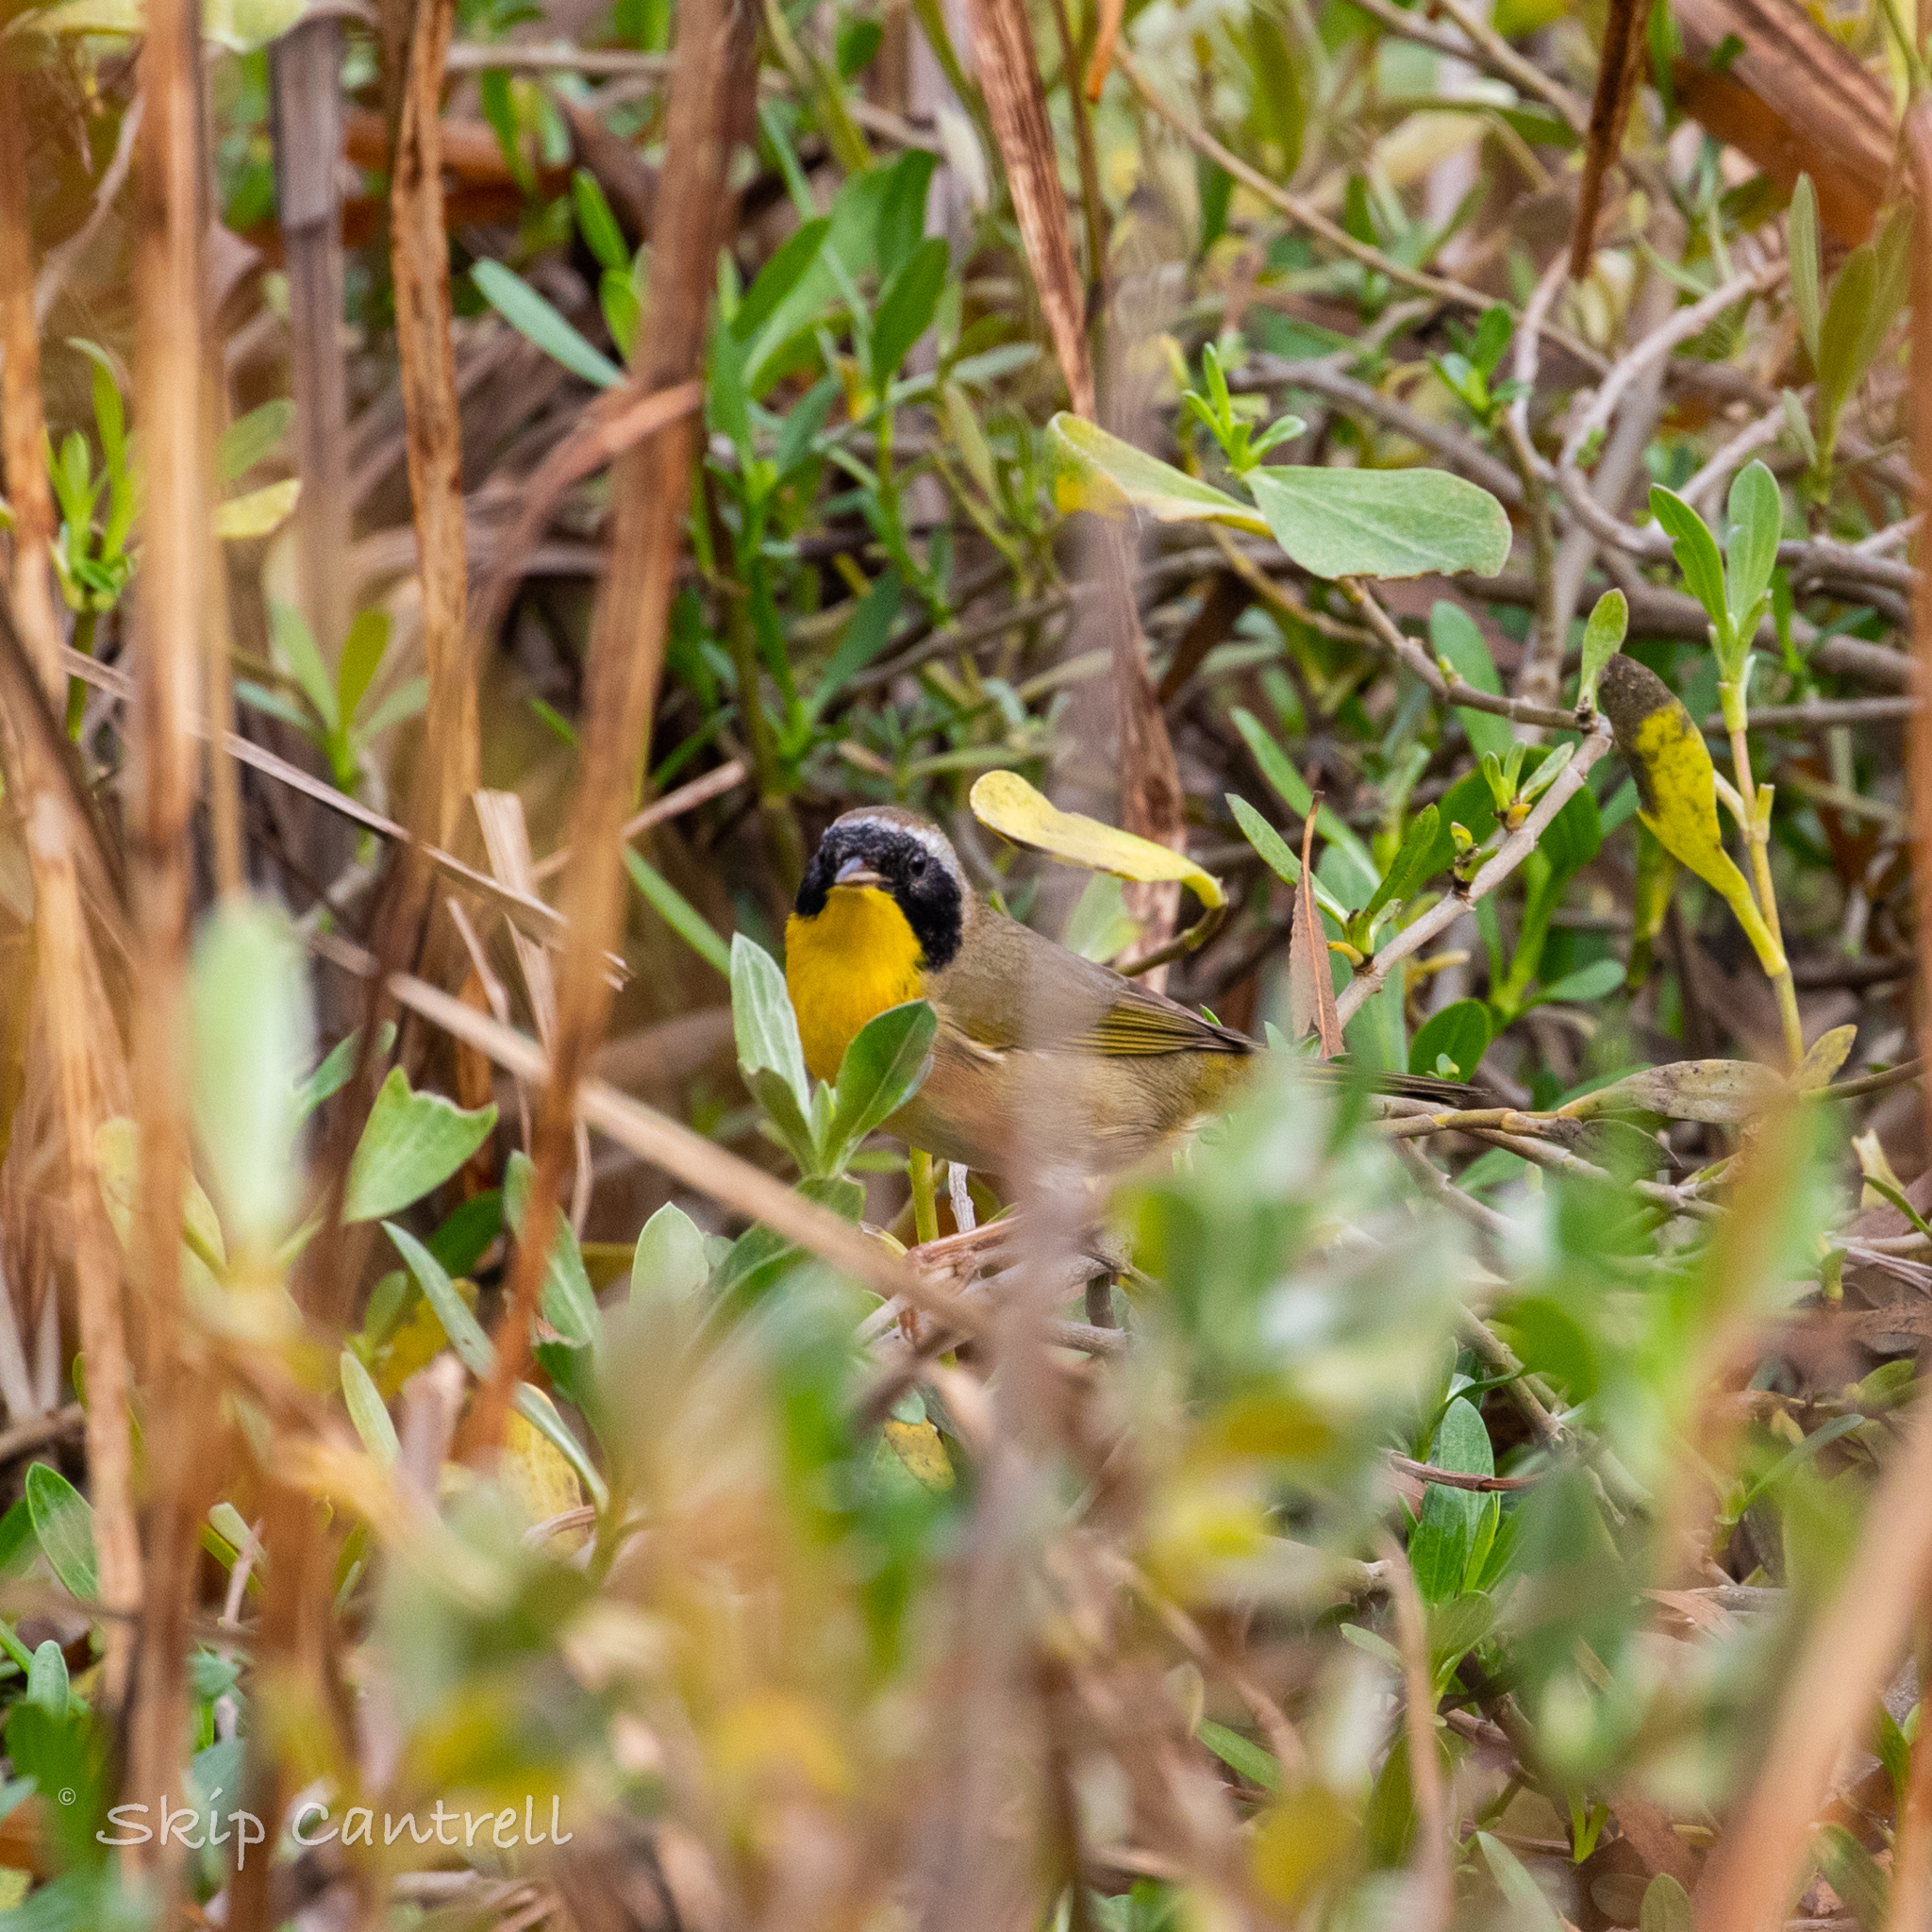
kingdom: Animalia
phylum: Chordata
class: Aves
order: Passeriformes
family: Parulidae
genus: Geothlypis
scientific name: Geothlypis trichas
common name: Common yellowthroat
